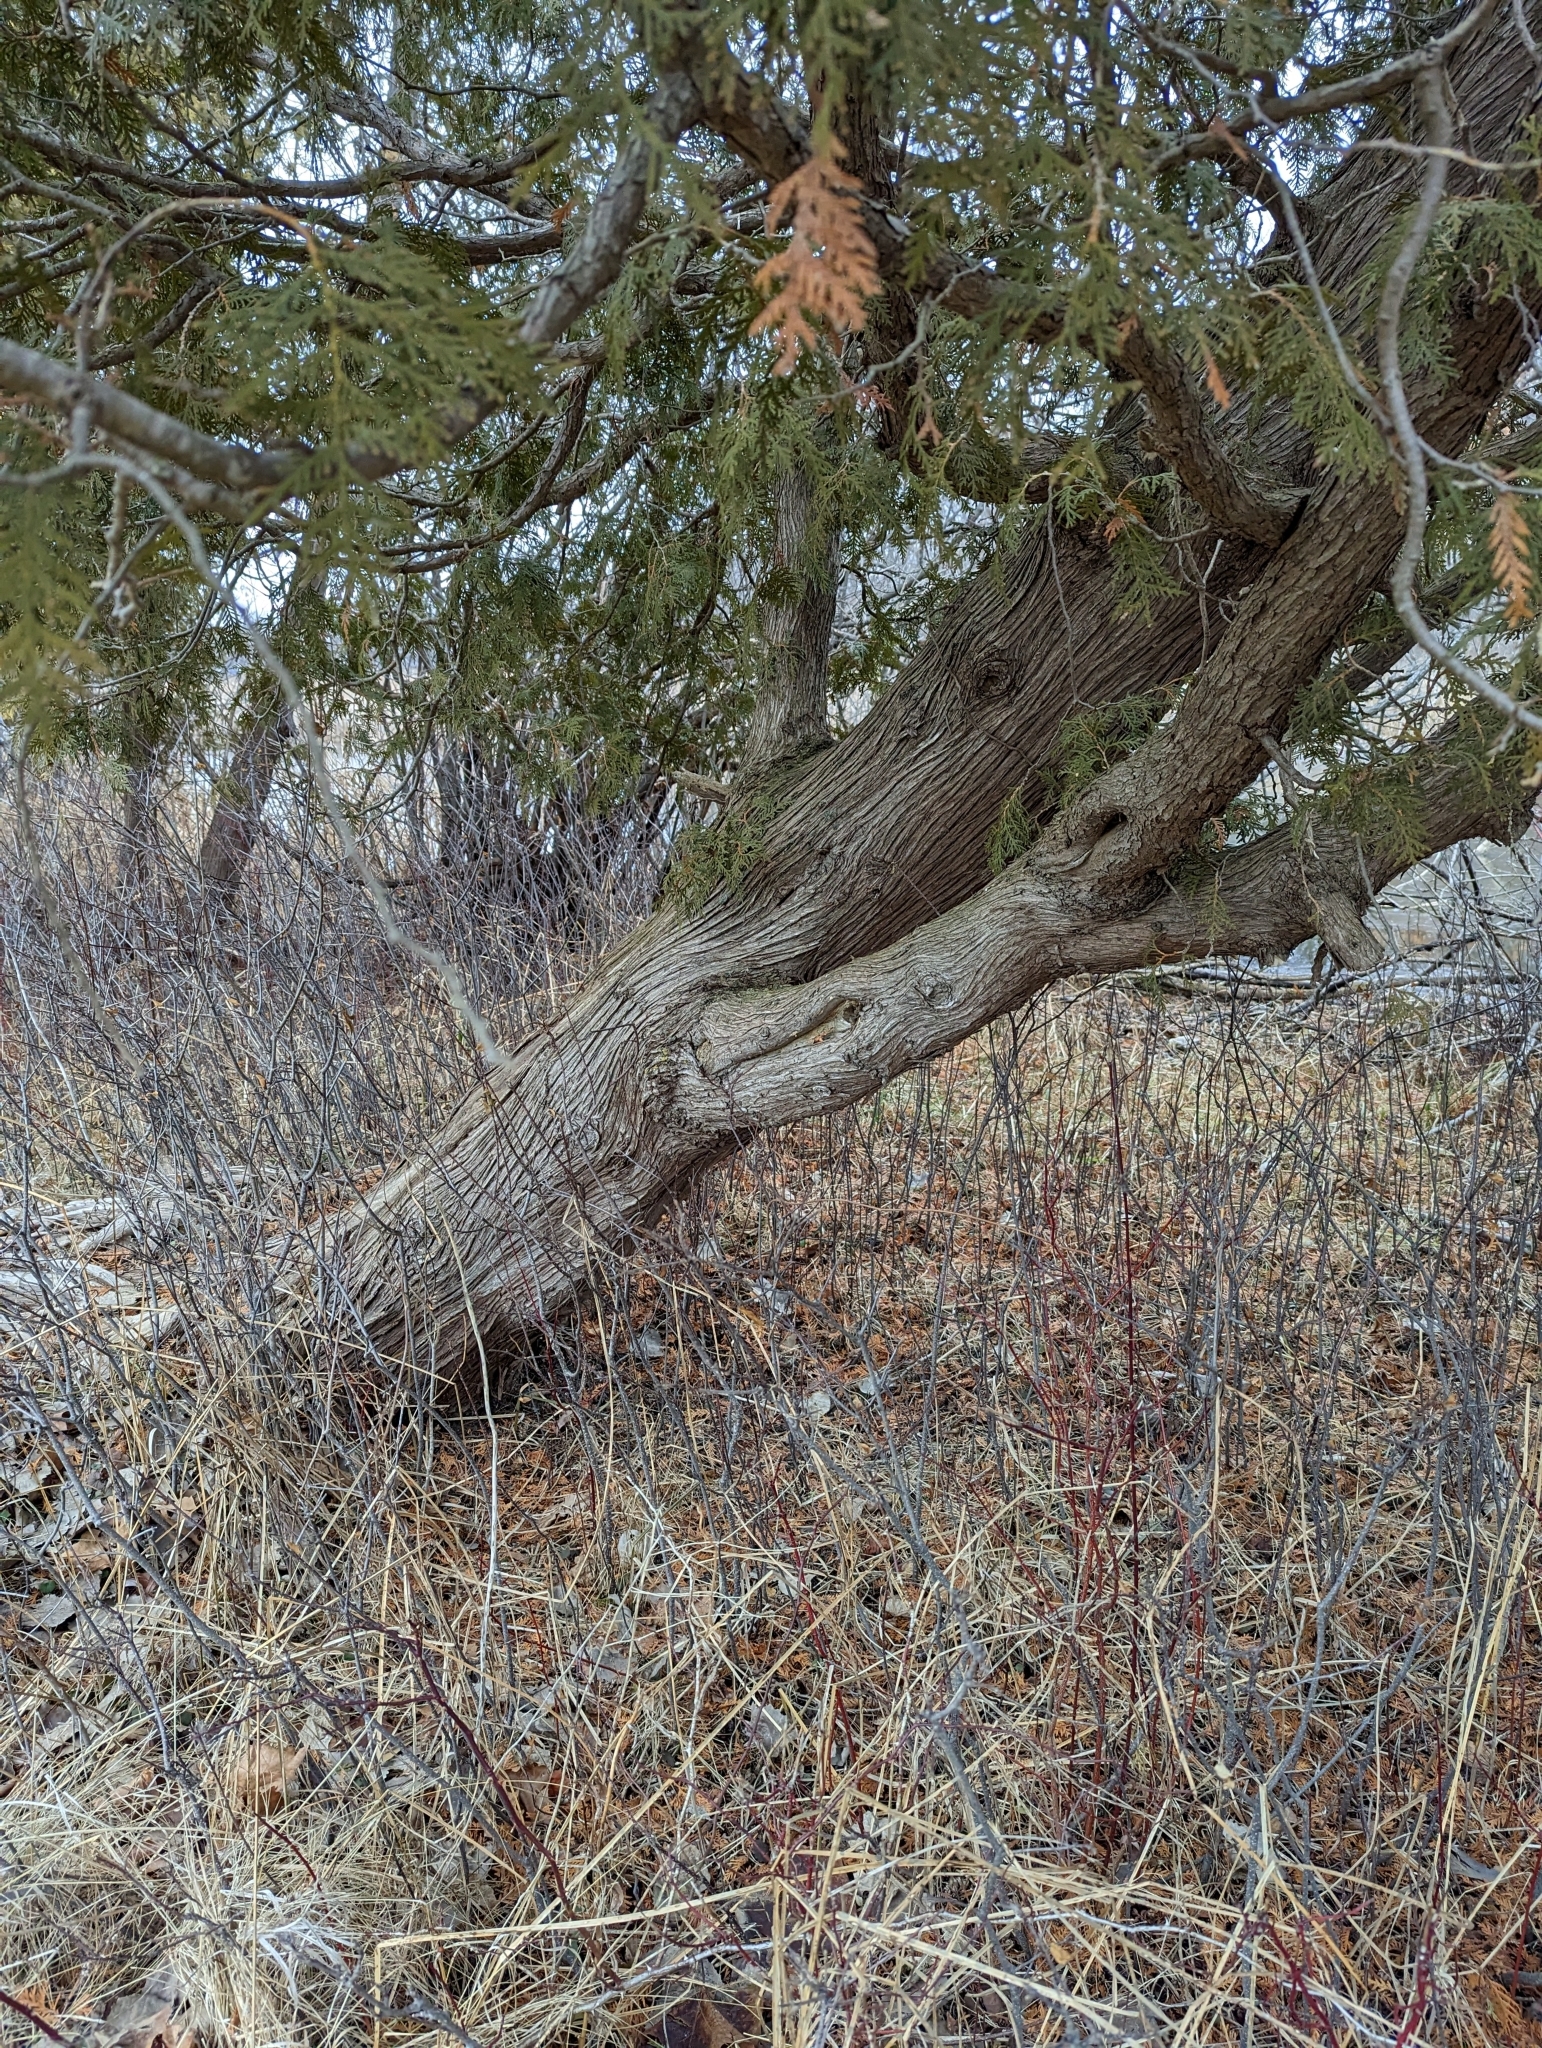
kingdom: Plantae
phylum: Tracheophyta
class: Pinopsida
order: Pinales
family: Cupressaceae
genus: Thuja
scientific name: Thuja occidentalis
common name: Northern white-cedar
